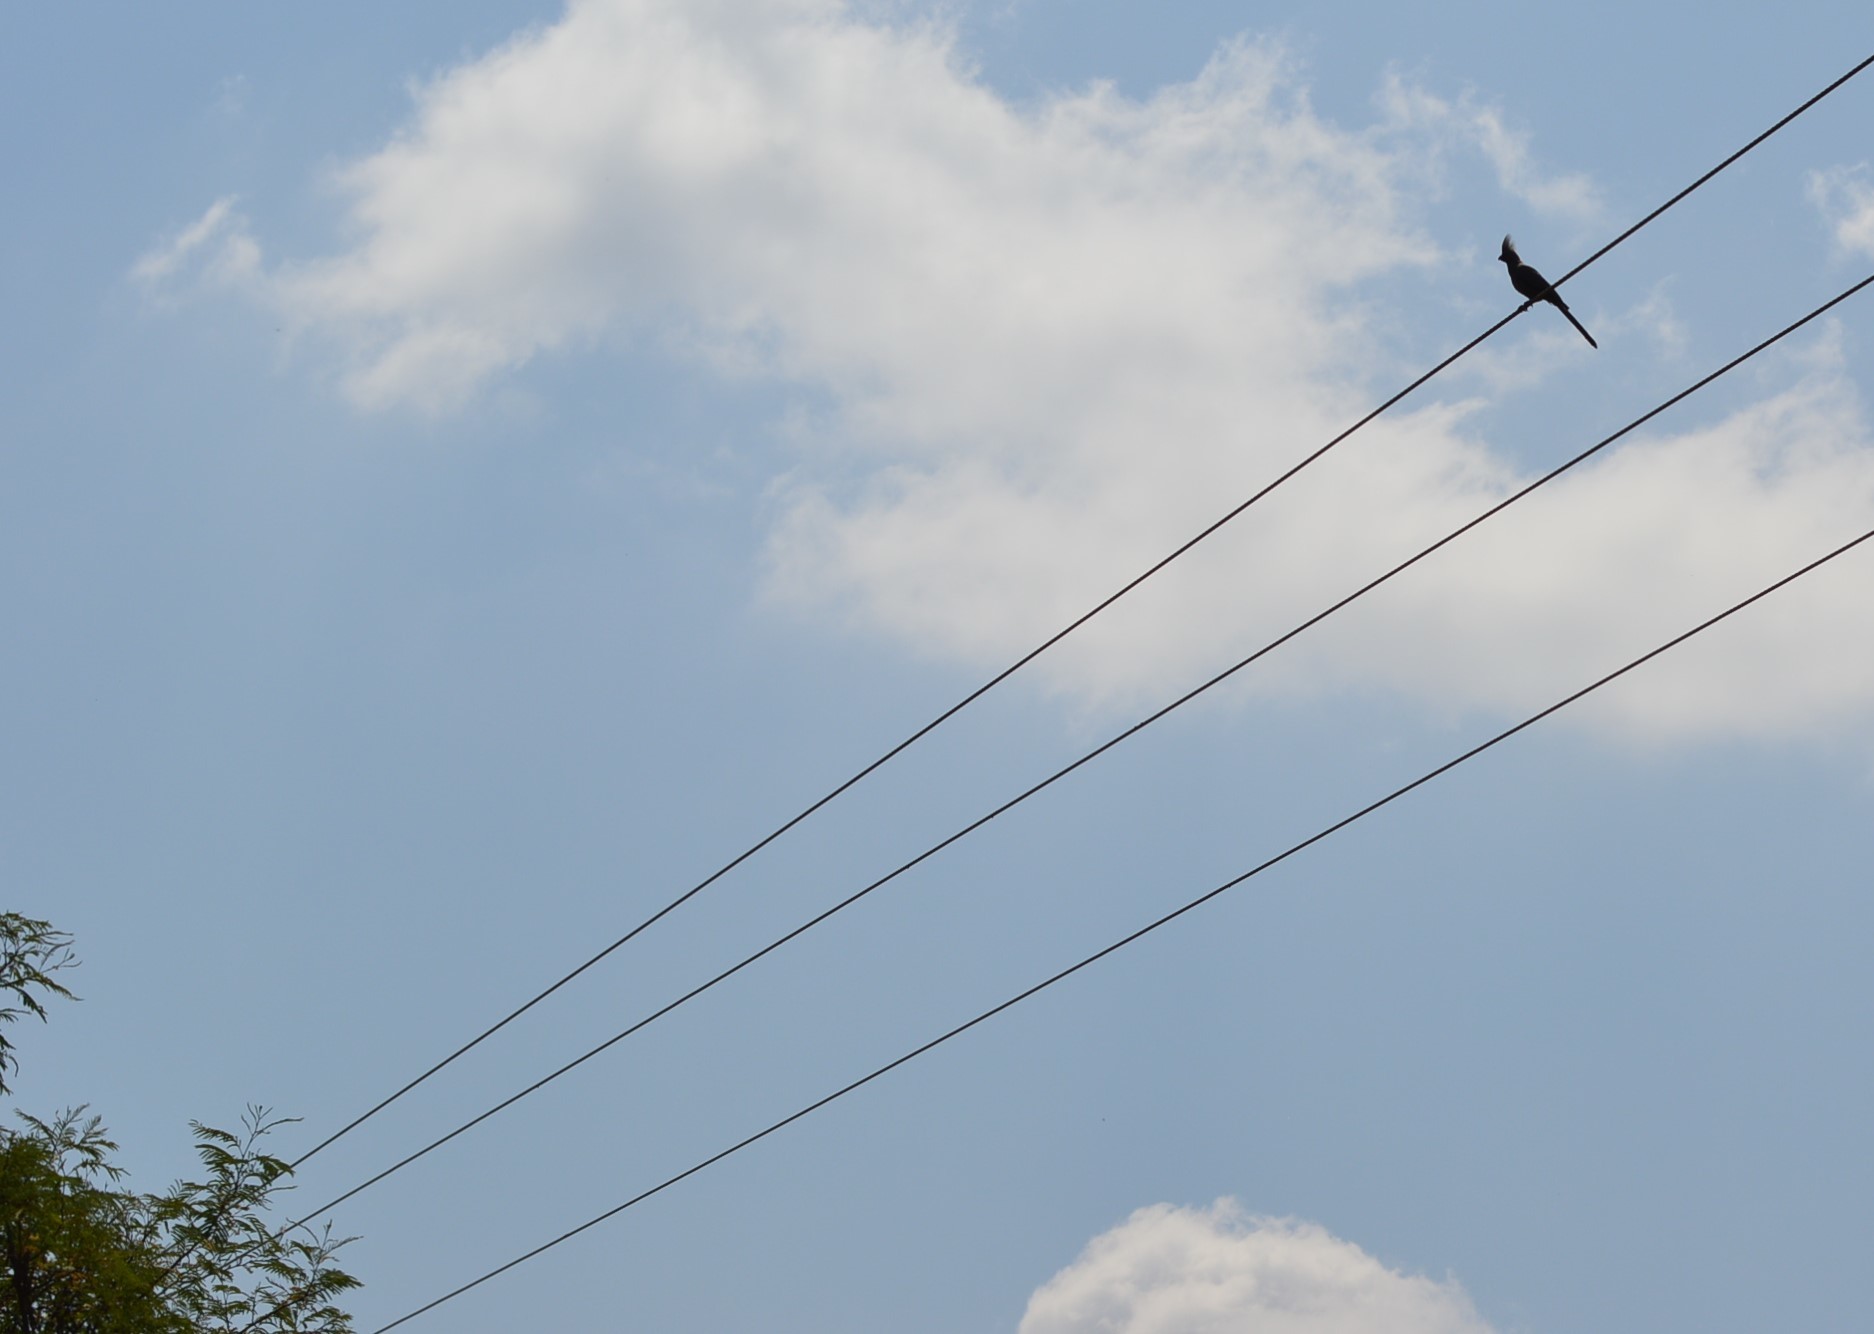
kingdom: Animalia
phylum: Chordata
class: Aves
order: Musophagiformes
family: Musophagidae
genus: Corythaixoides
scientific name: Corythaixoides concolor
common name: Grey go-away-bird
